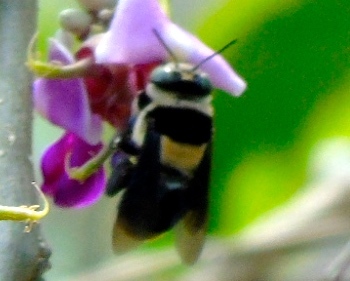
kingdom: Animalia
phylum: Arthropoda
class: Insecta
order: Hymenoptera
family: Apidae
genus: Centris
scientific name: Centris flavofasciata
